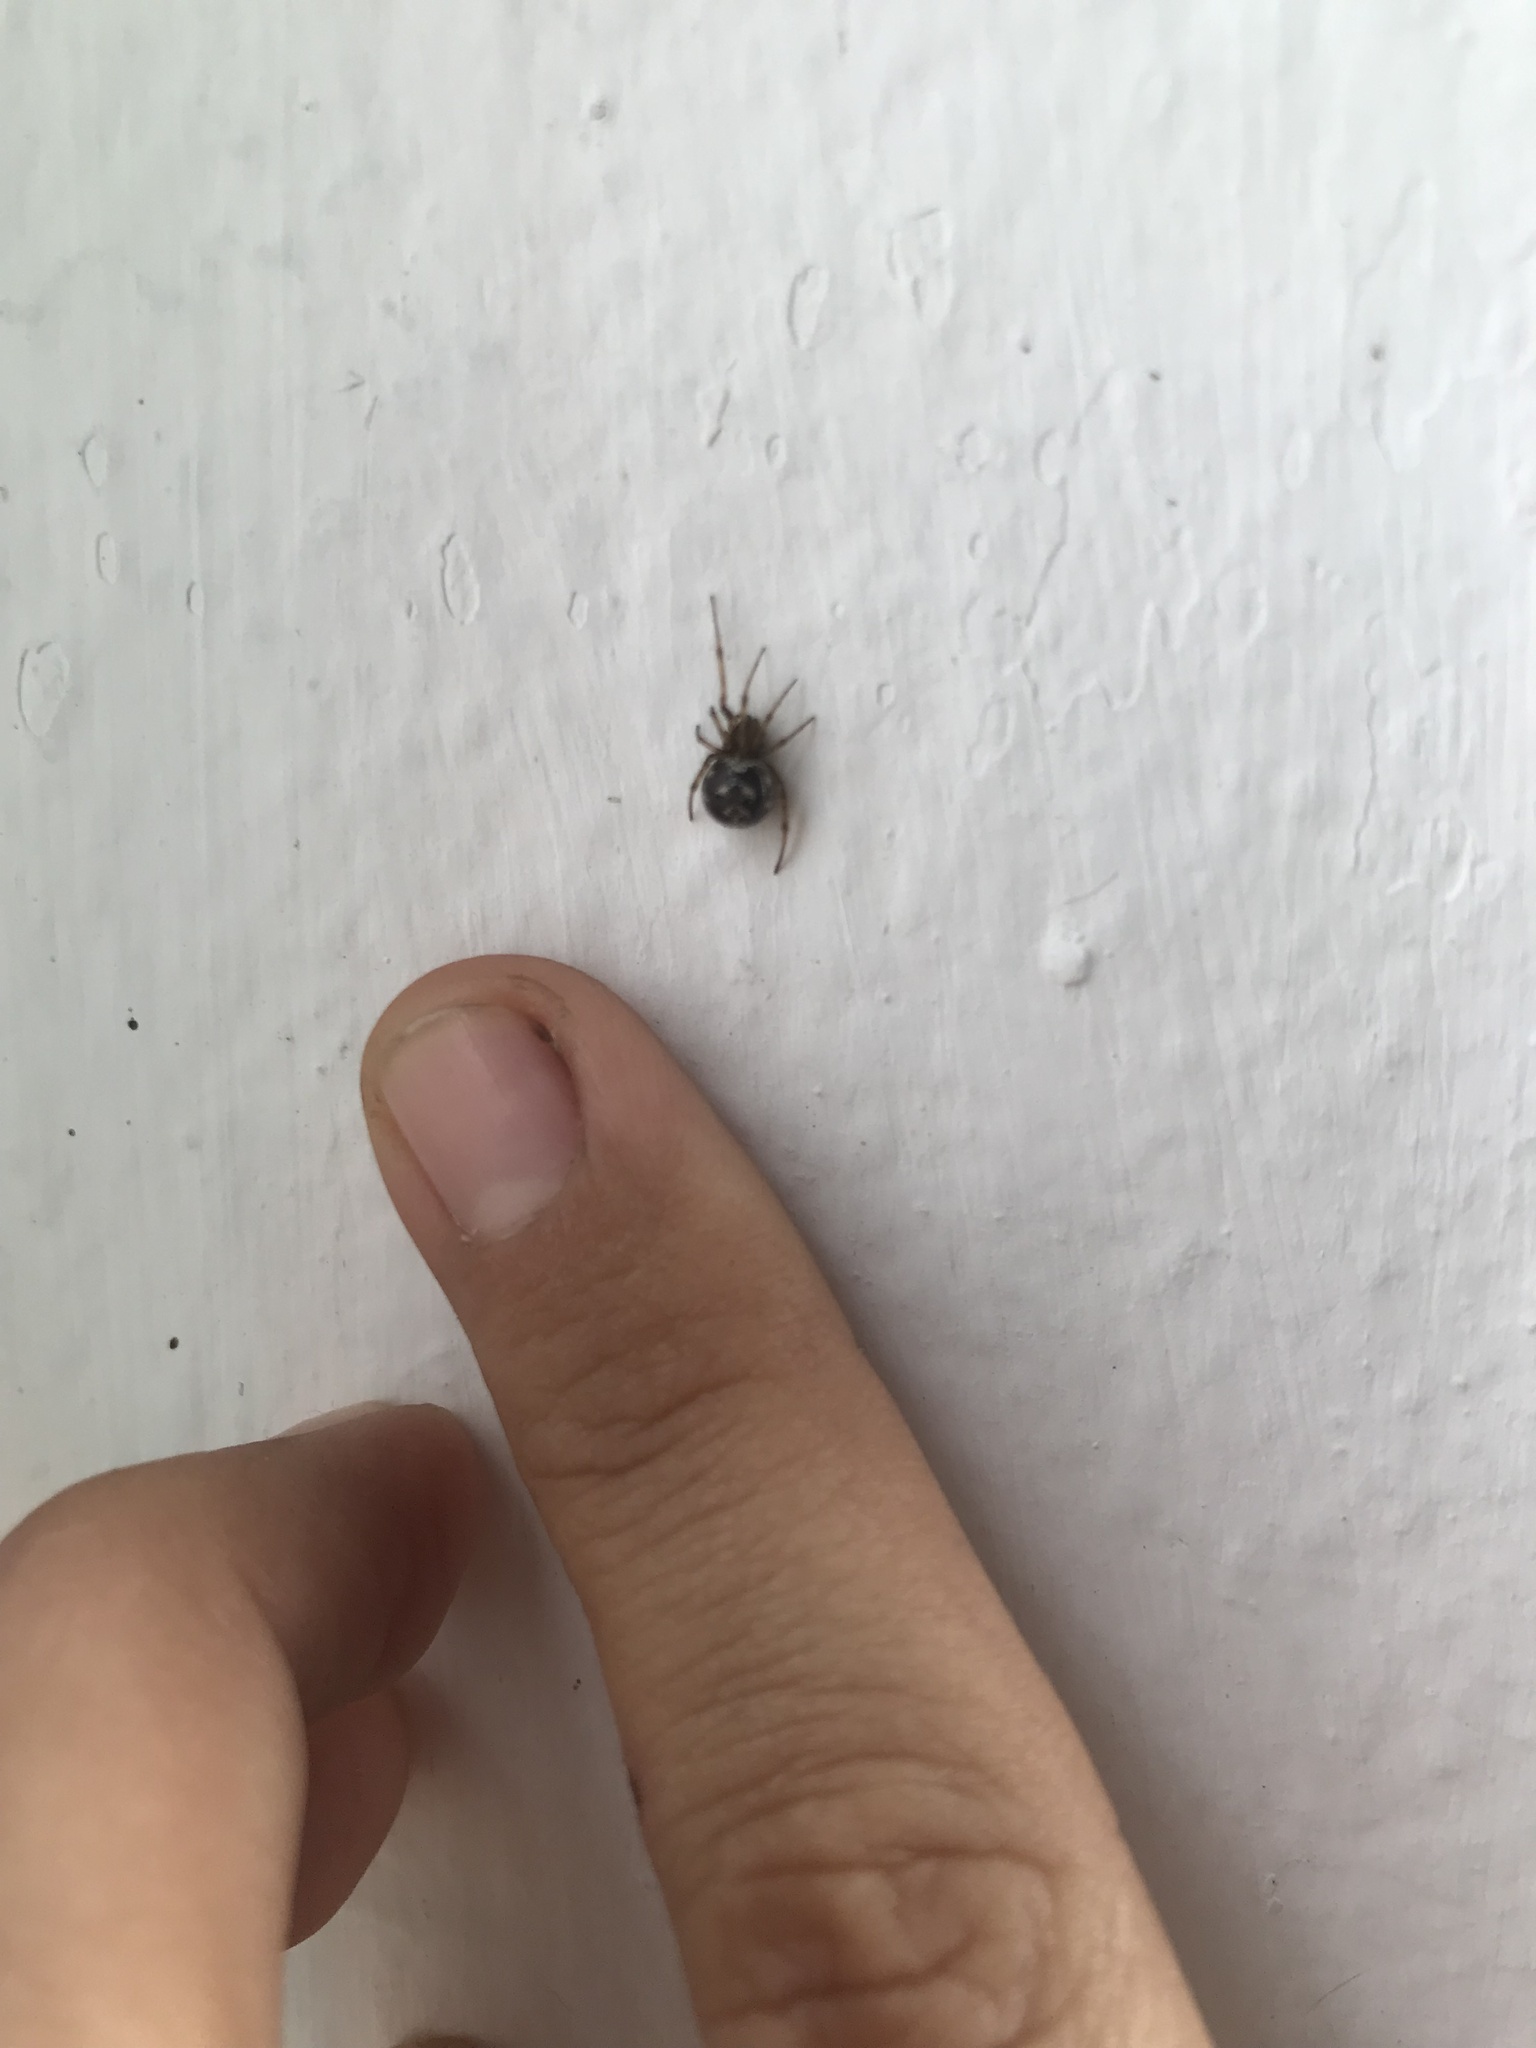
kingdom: Animalia
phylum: Arthropoda
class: Arachnida
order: Araneae
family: Theridiidae
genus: Steatoda
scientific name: Steatoda triangulosa
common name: Triangulate bud spider
